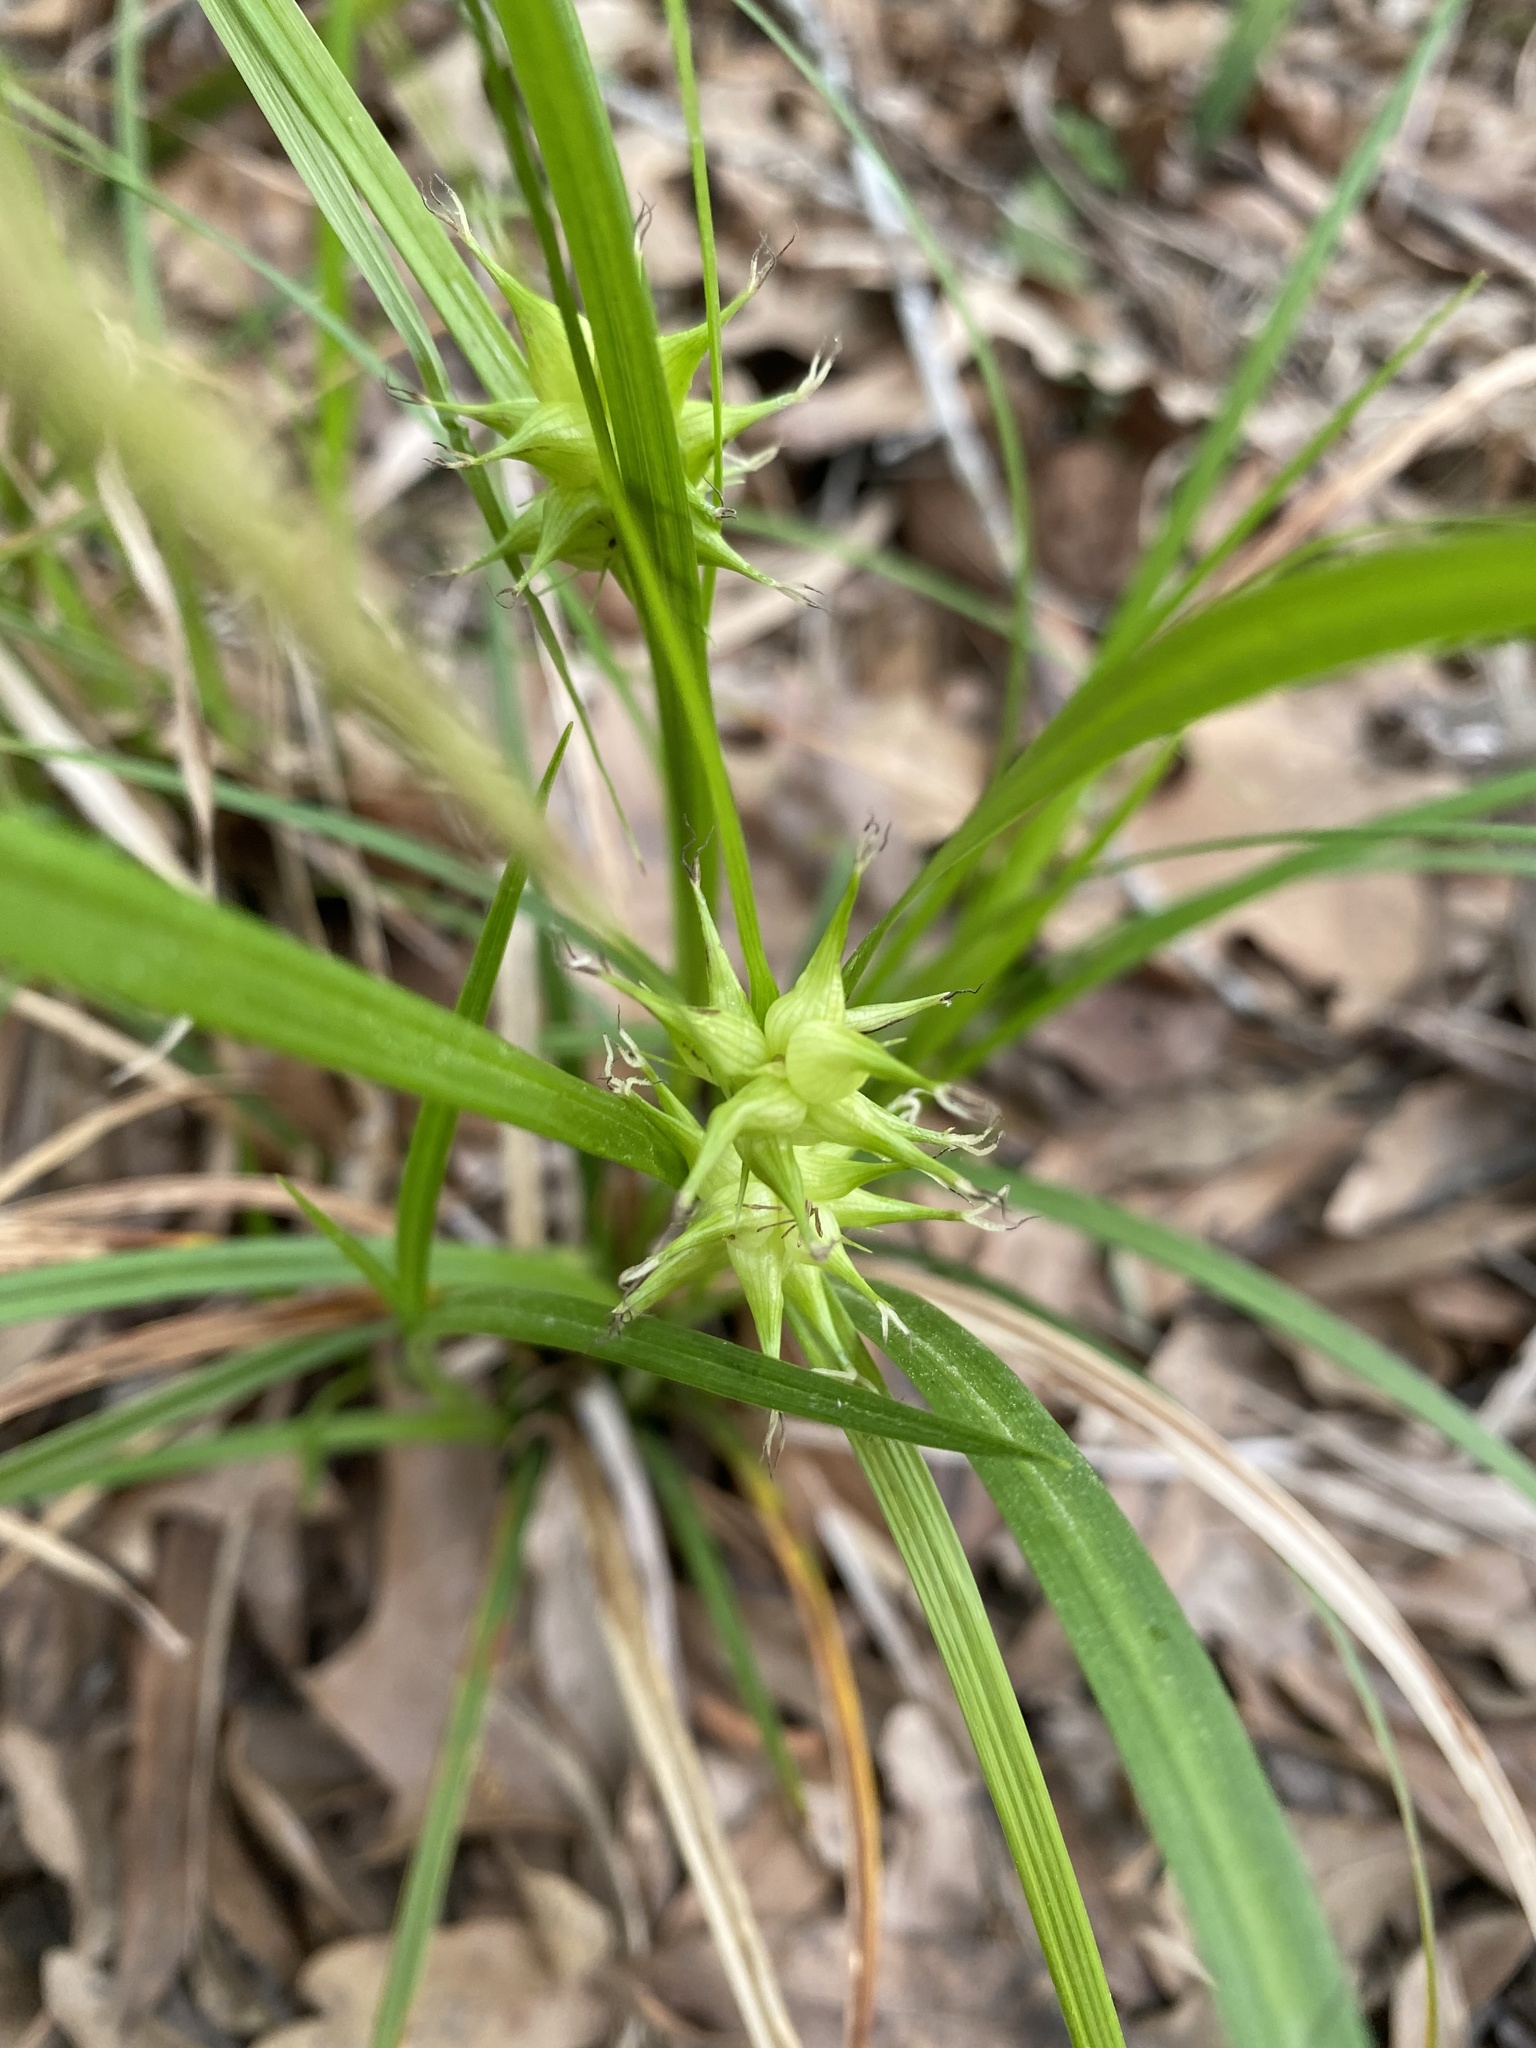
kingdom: Plantae
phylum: Tracheophyta
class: Liliopsida
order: Poales
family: Cyperaceae
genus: Carex
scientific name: Carex intumescens
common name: Greater bladder sedge
